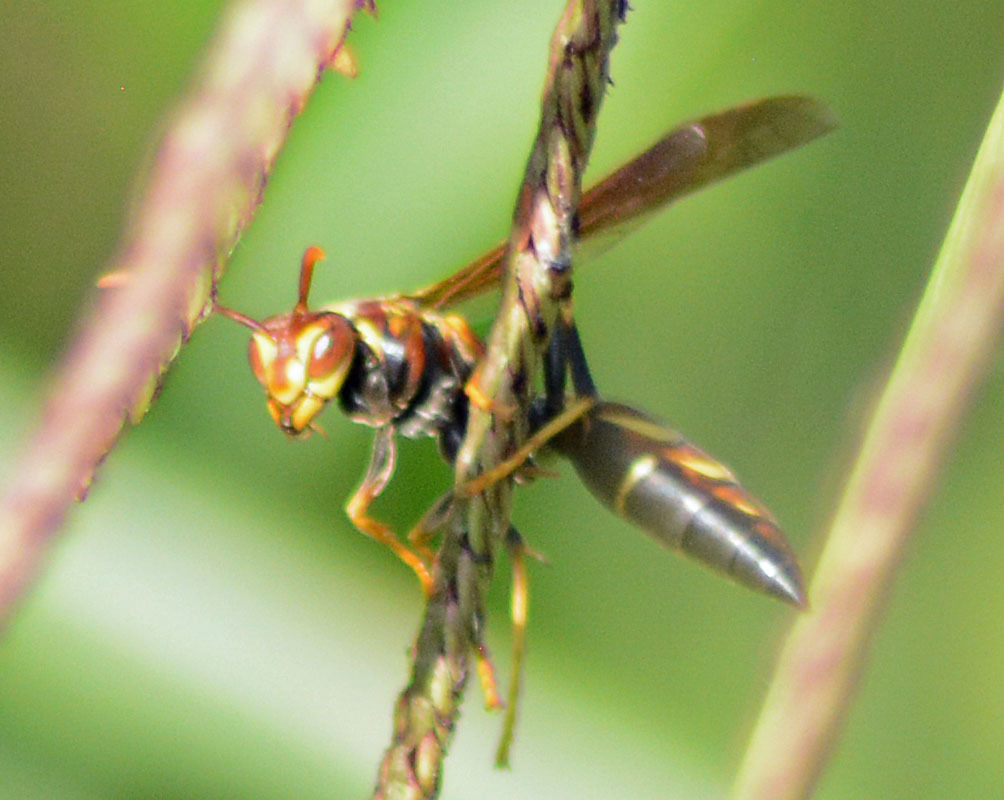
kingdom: Animalia
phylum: Arthropoda
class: Insecta
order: Hymenoptera
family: Eumenidae
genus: Polistes
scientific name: Polistes instabilis
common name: Unstable paper wasp
